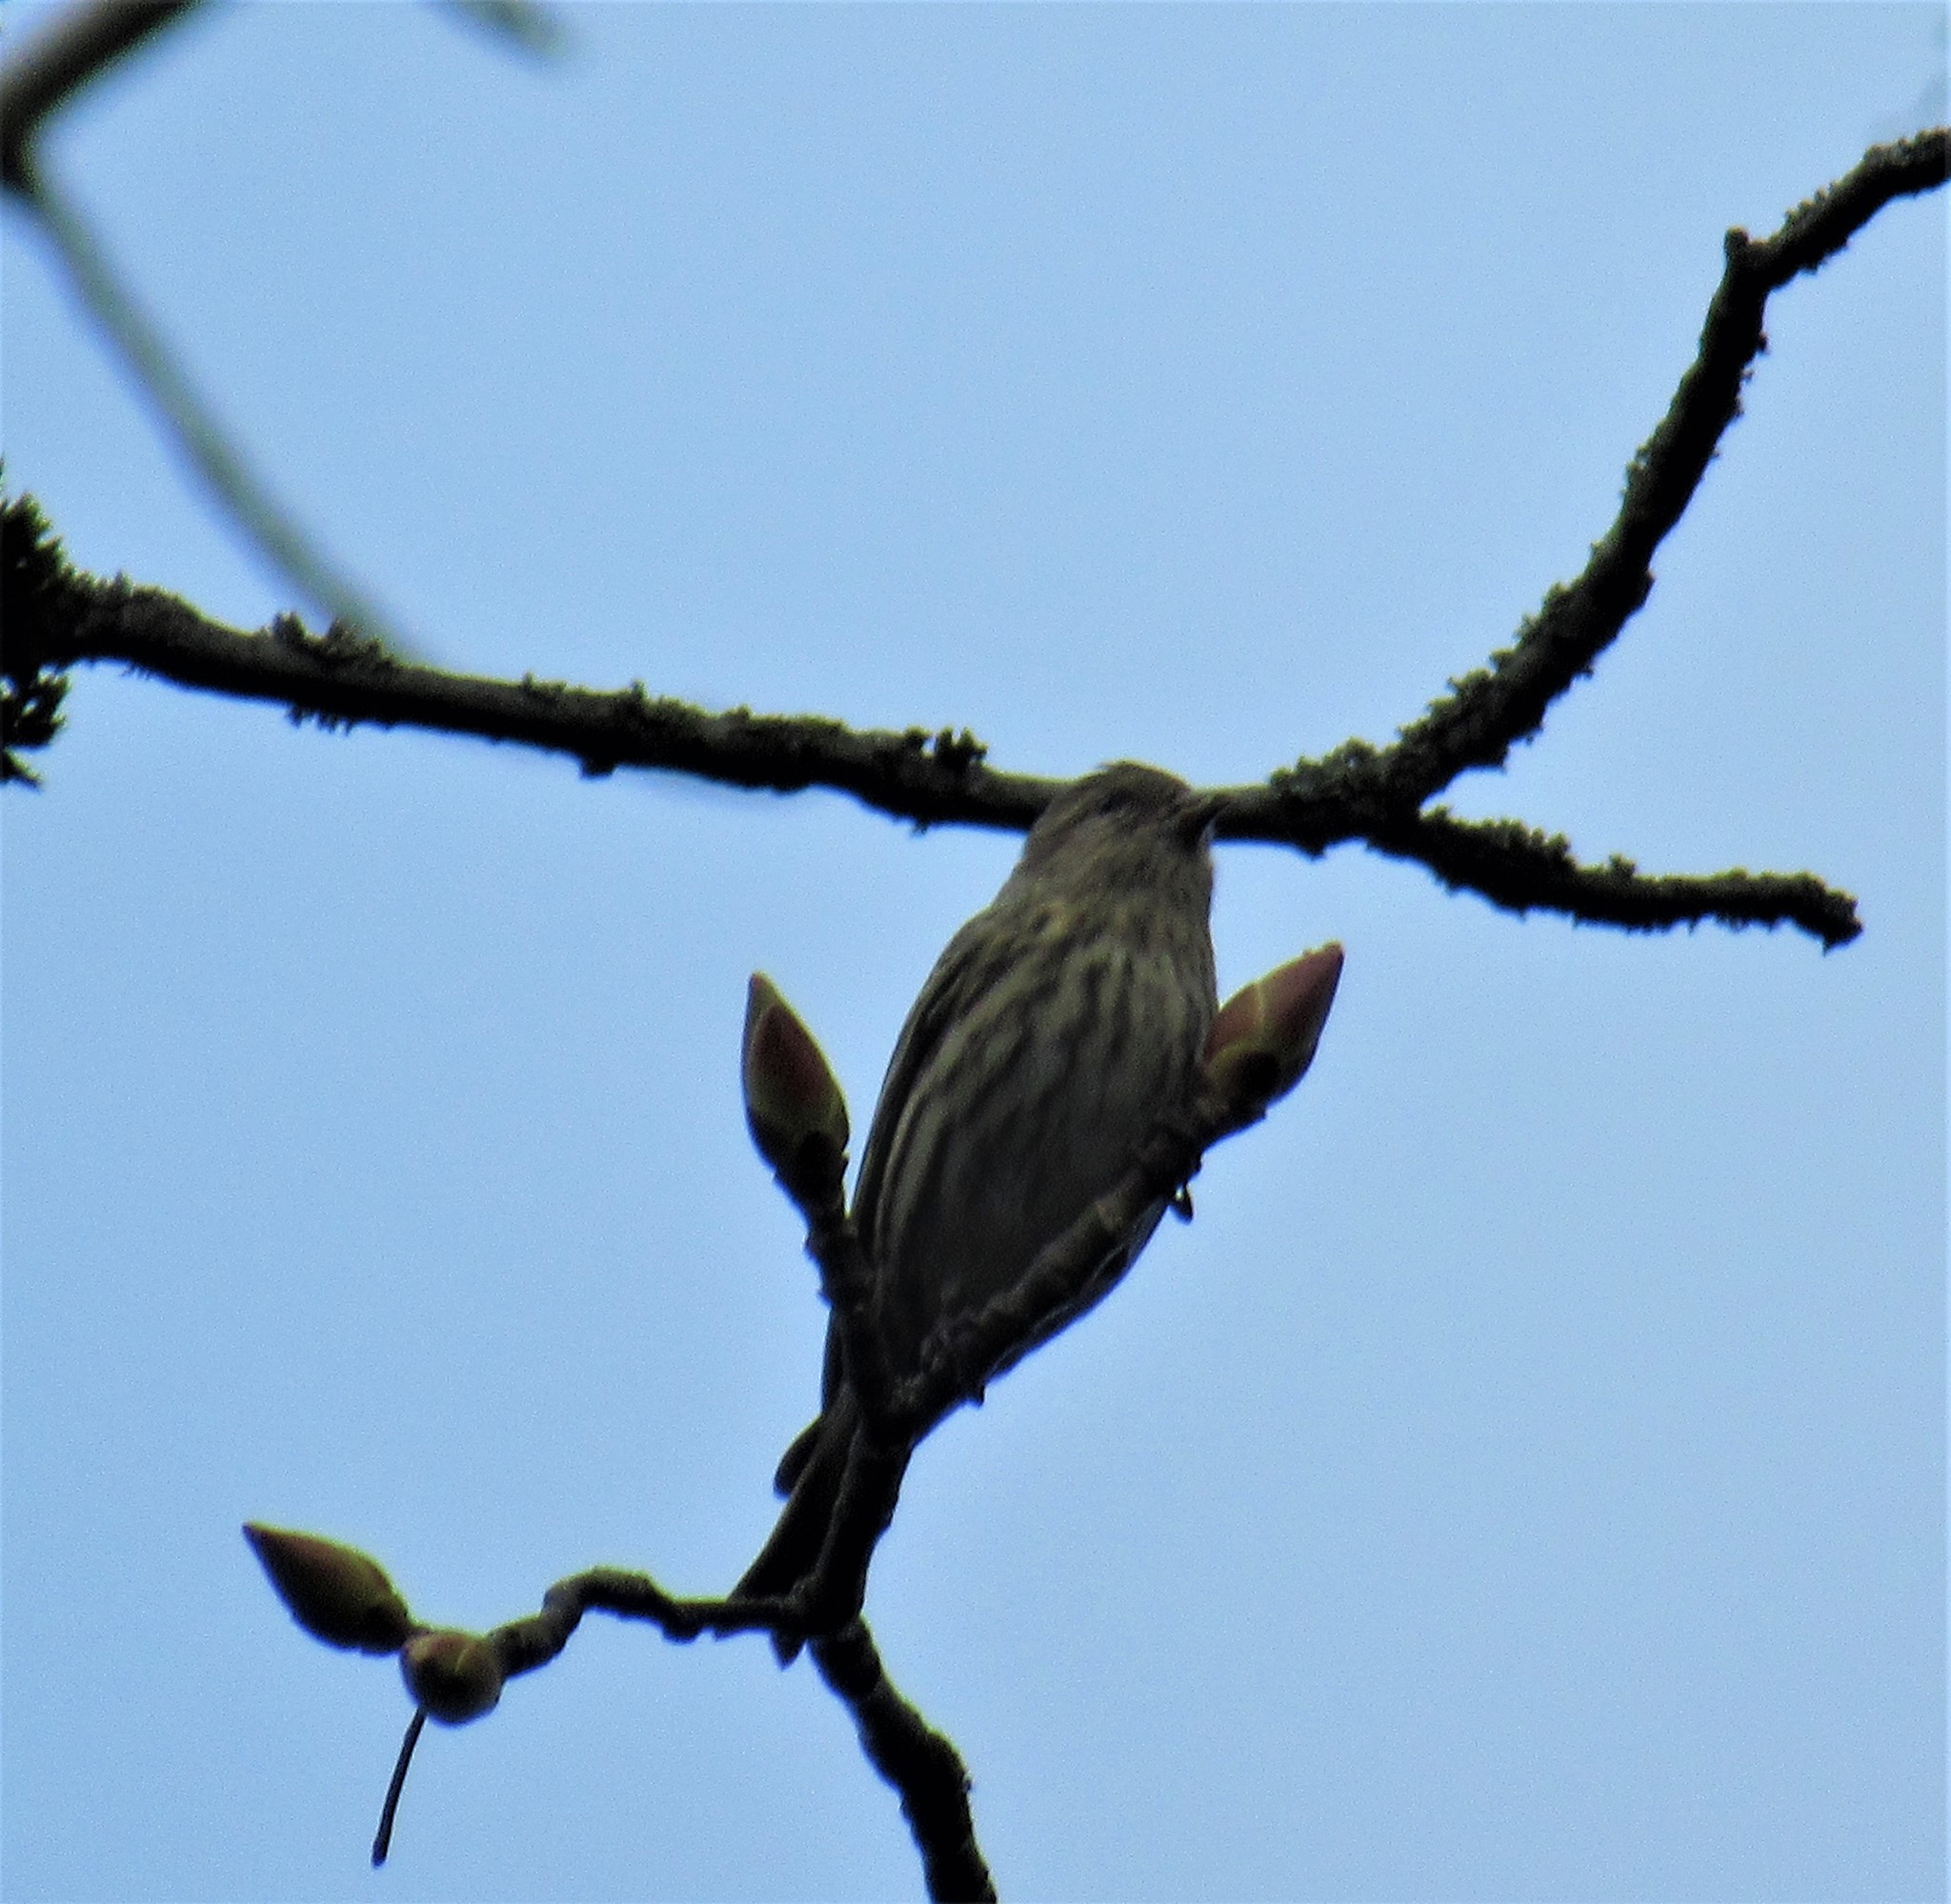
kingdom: Animalia
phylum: Chordata
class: Aves
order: Passeriformes
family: Fringillidae
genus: Spinus
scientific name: Spinus pinus
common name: Pine siskin
